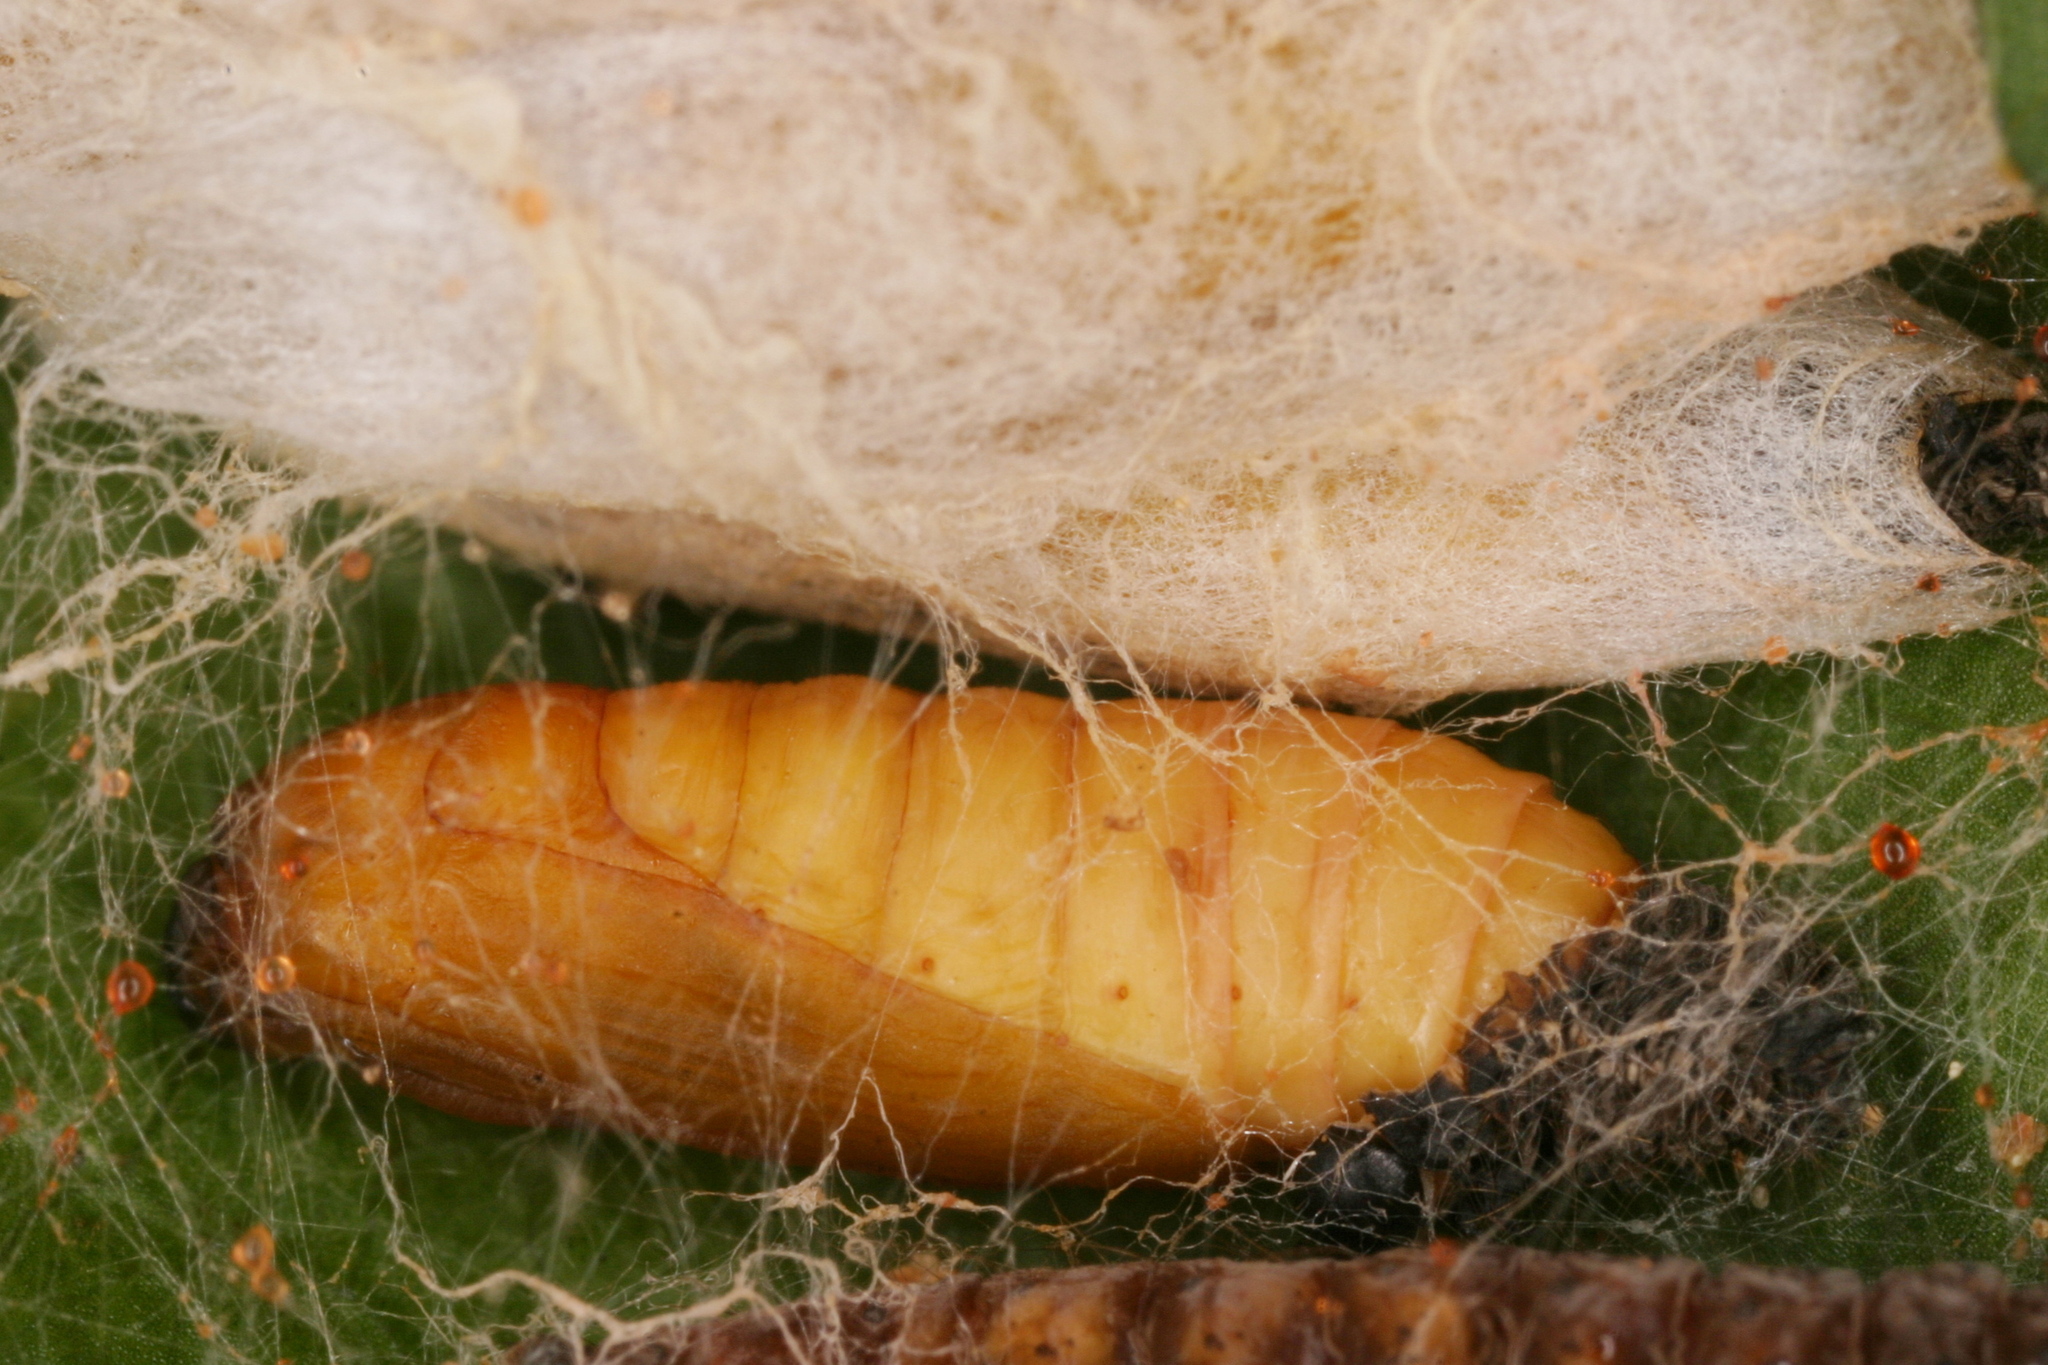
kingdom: Animalia
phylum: Arthropoda
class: Insecta
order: Lepidoptera
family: Yponomeutidae
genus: Yponomeuta
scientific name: Yponomeuta cagnagellus
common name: Spindle ermine
